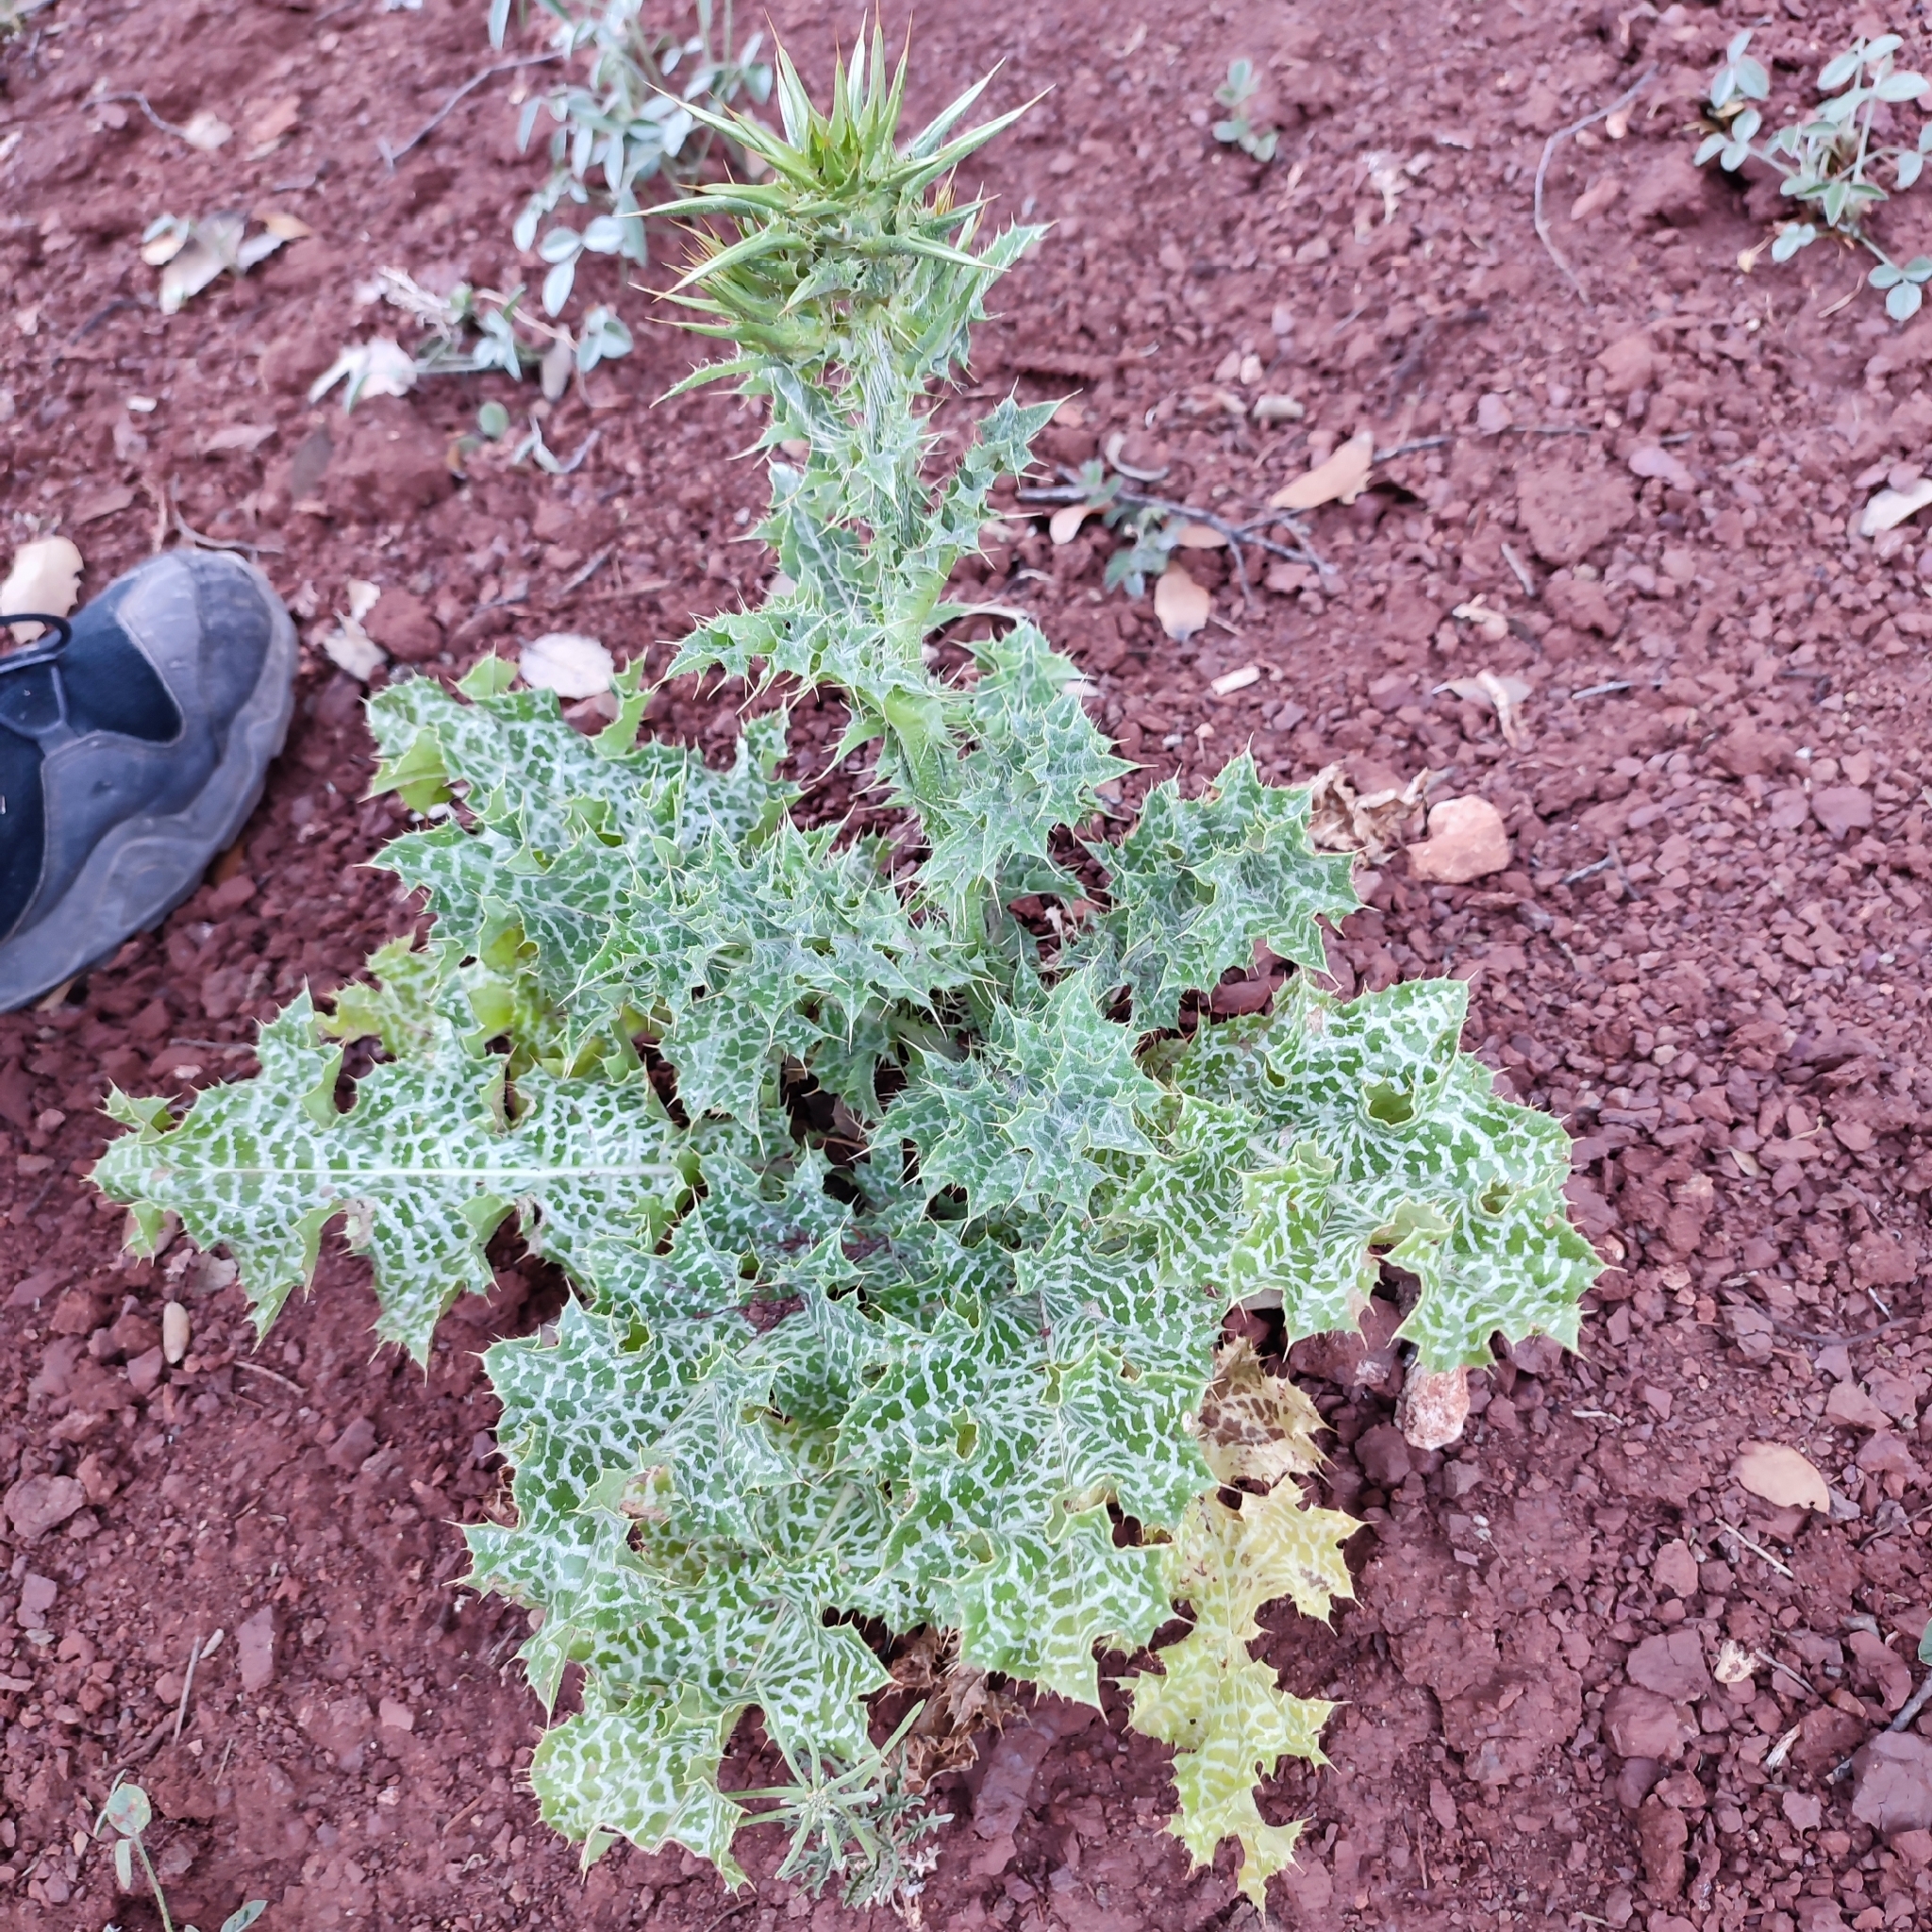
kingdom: Plantae
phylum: Tracheophyta
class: Magnoliopsida
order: Asterales
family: Asteraceae
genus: Silybum
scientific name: Silybum marianum
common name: Milk thistle
